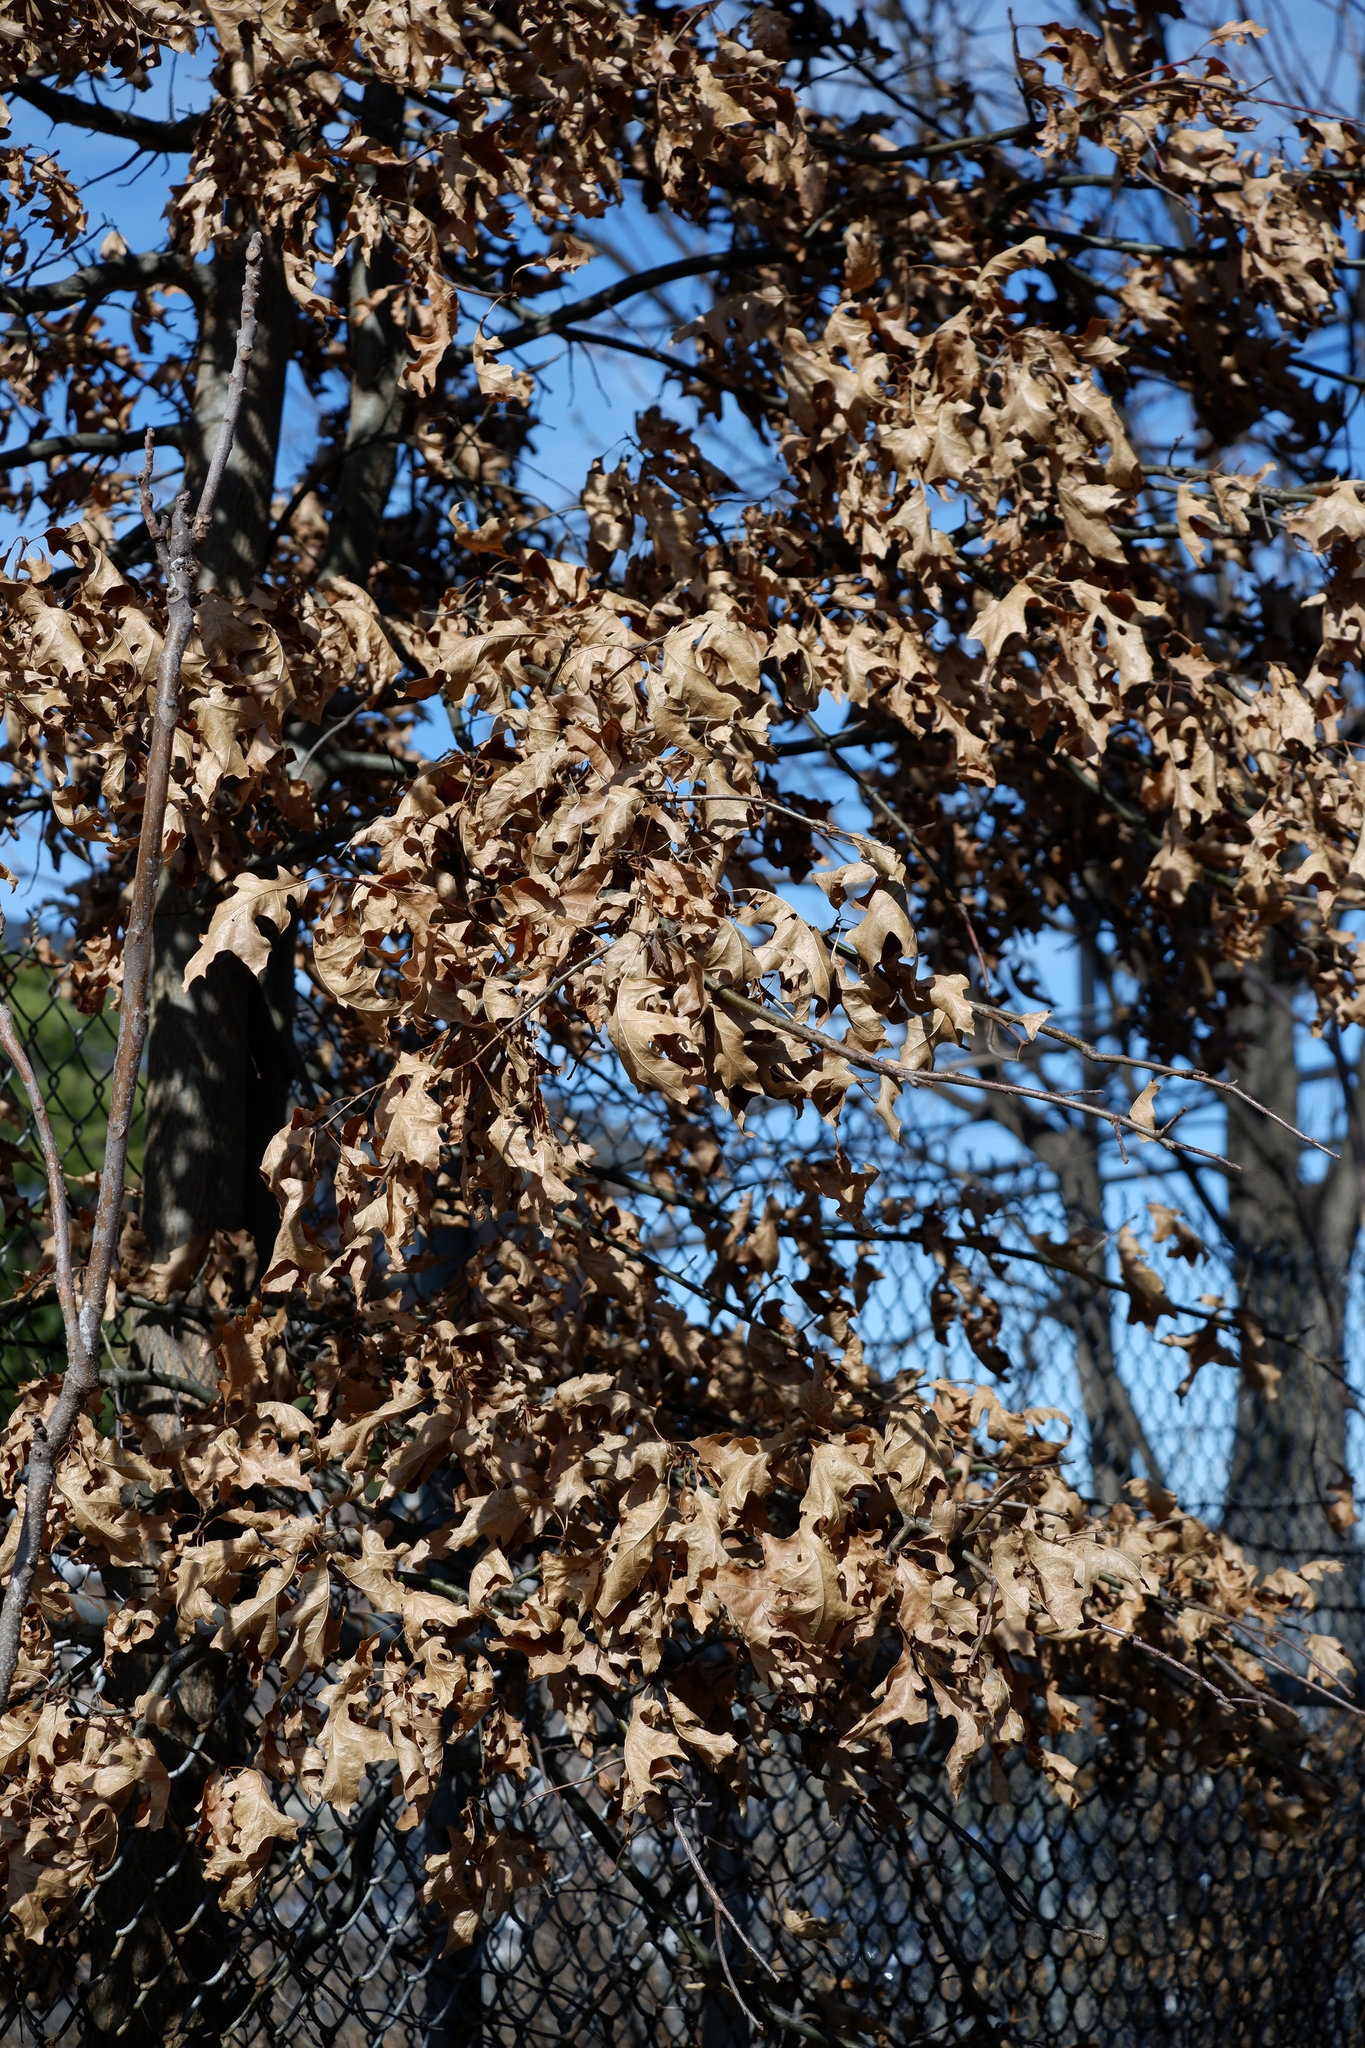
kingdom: Plantae
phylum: Tracheophyta
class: Magnoliopsida
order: Fagales
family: Fagaceae
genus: Quercus
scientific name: Quercus palustris
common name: Pin oak
